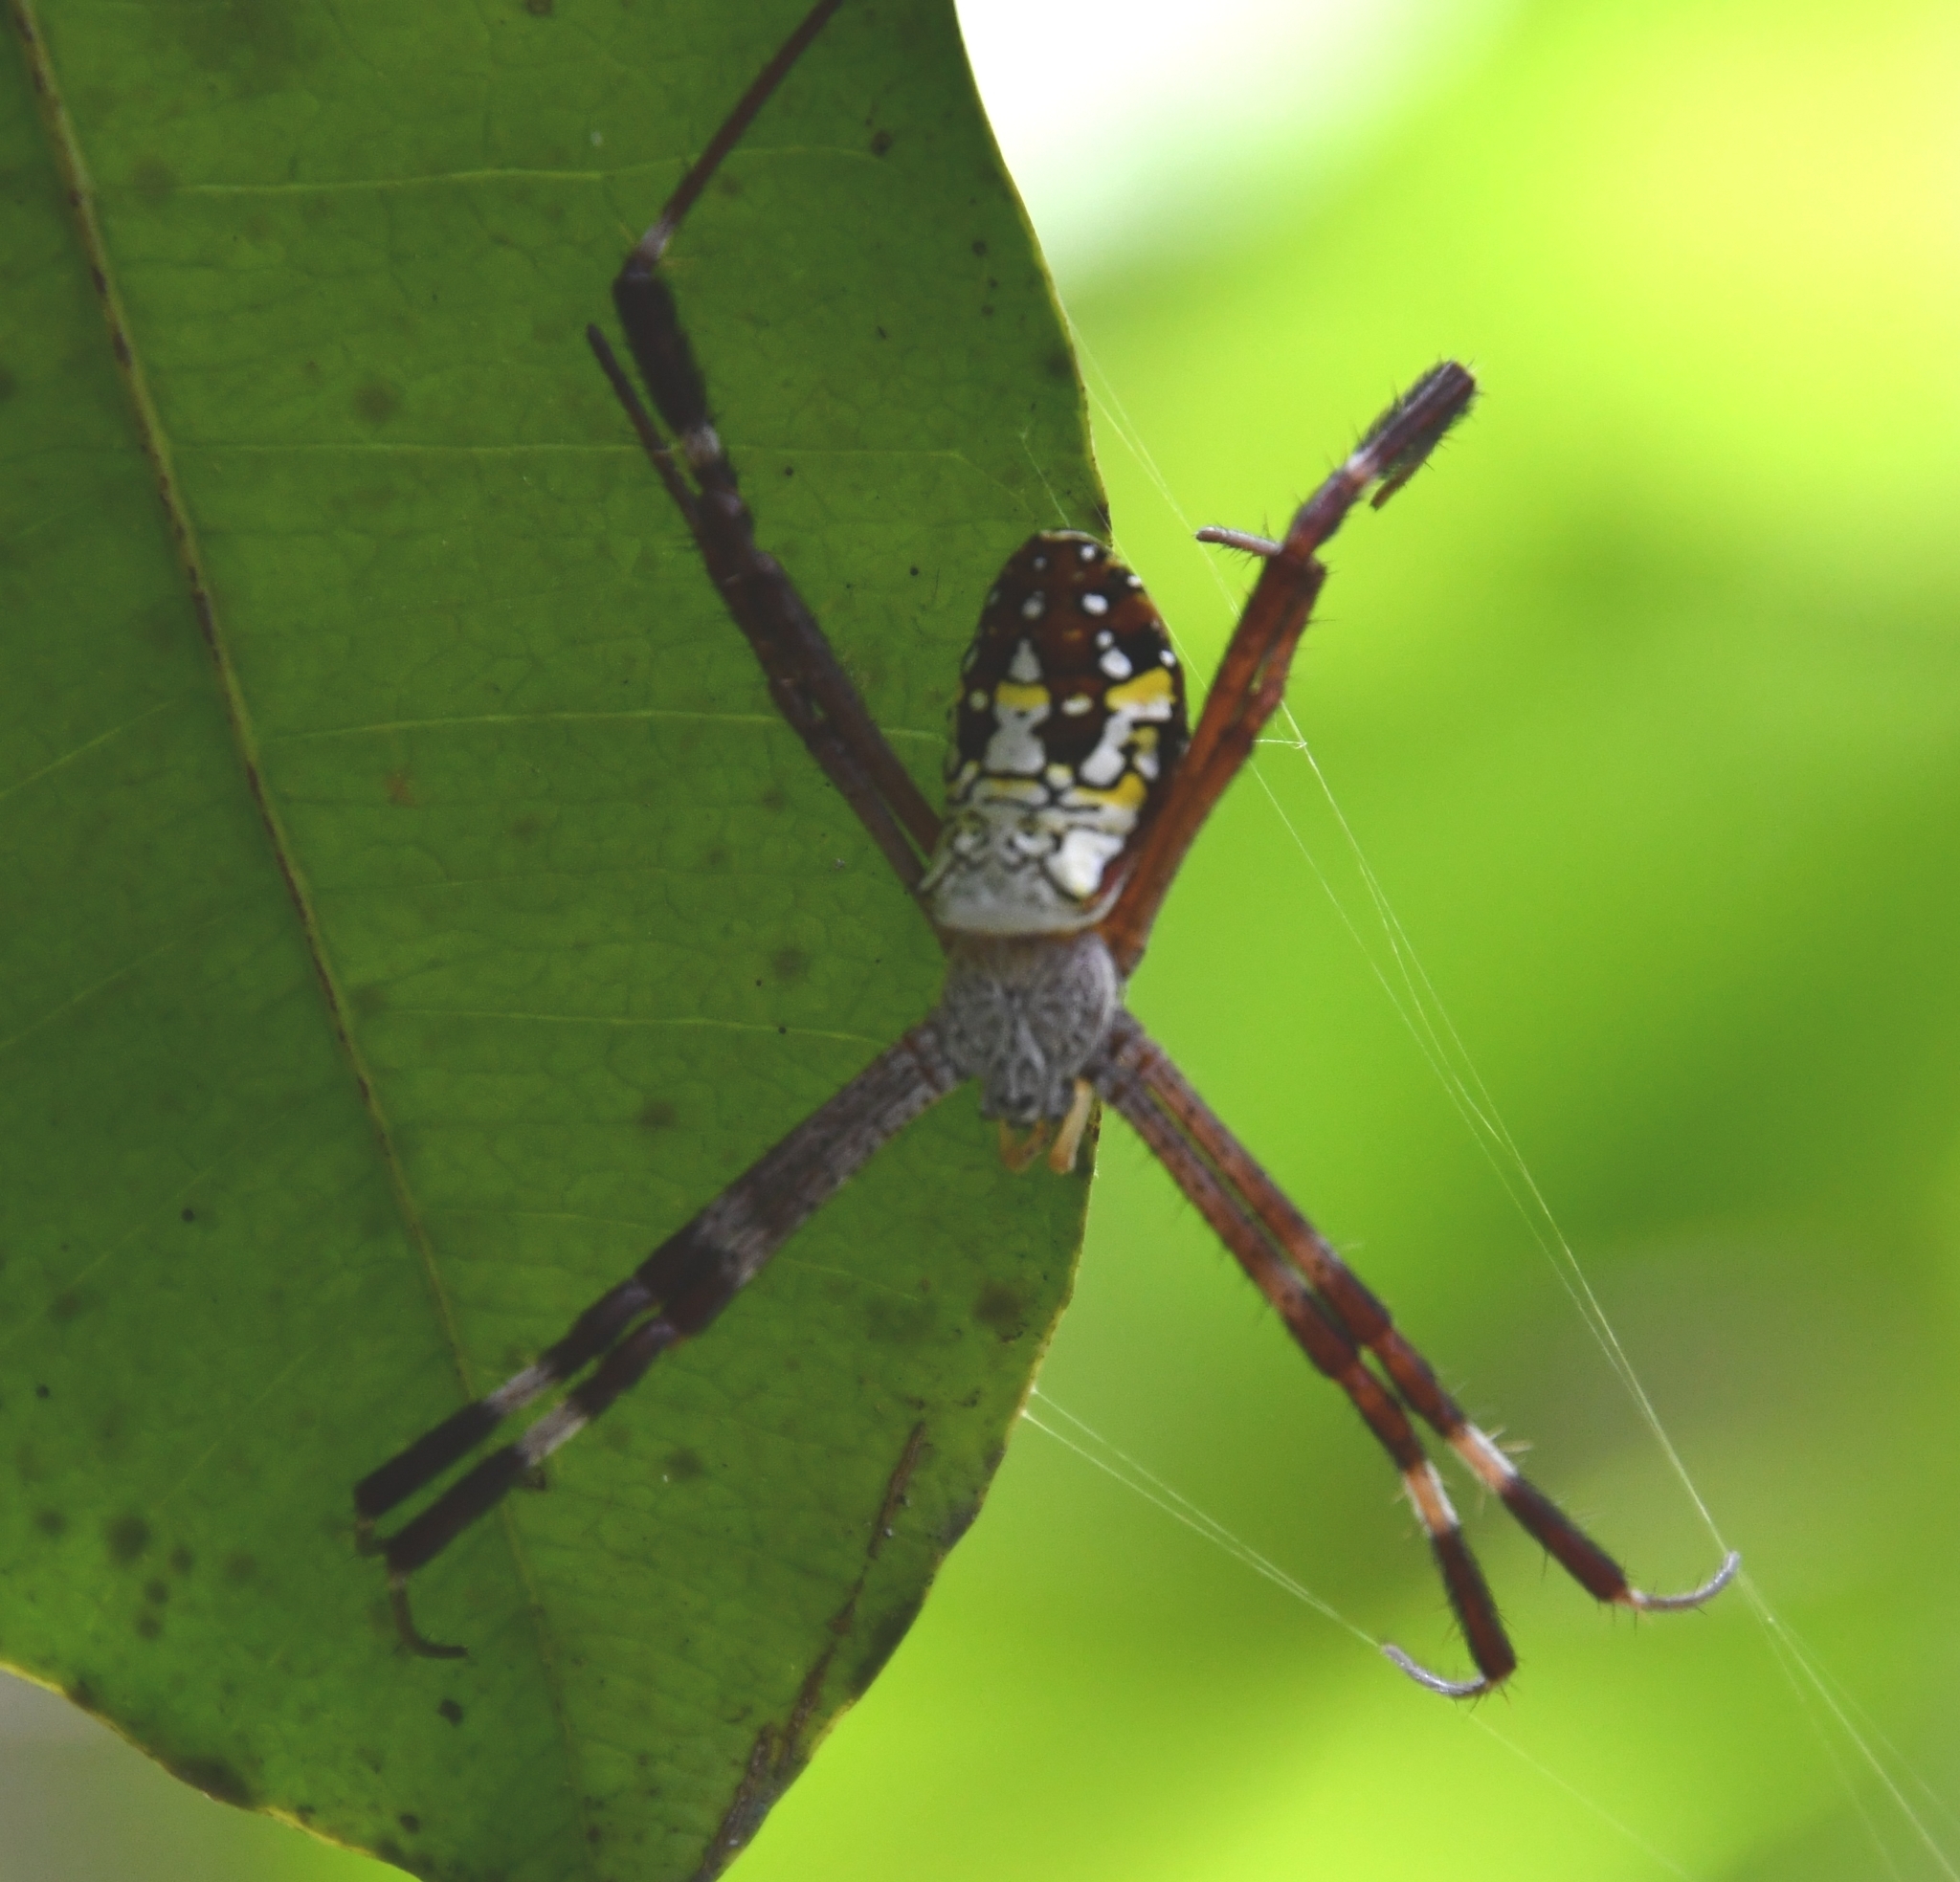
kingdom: Animalia
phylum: Arthropoda
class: Arachnida
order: Araneae
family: Araneidae
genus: Argiope
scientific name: Argiope dang
